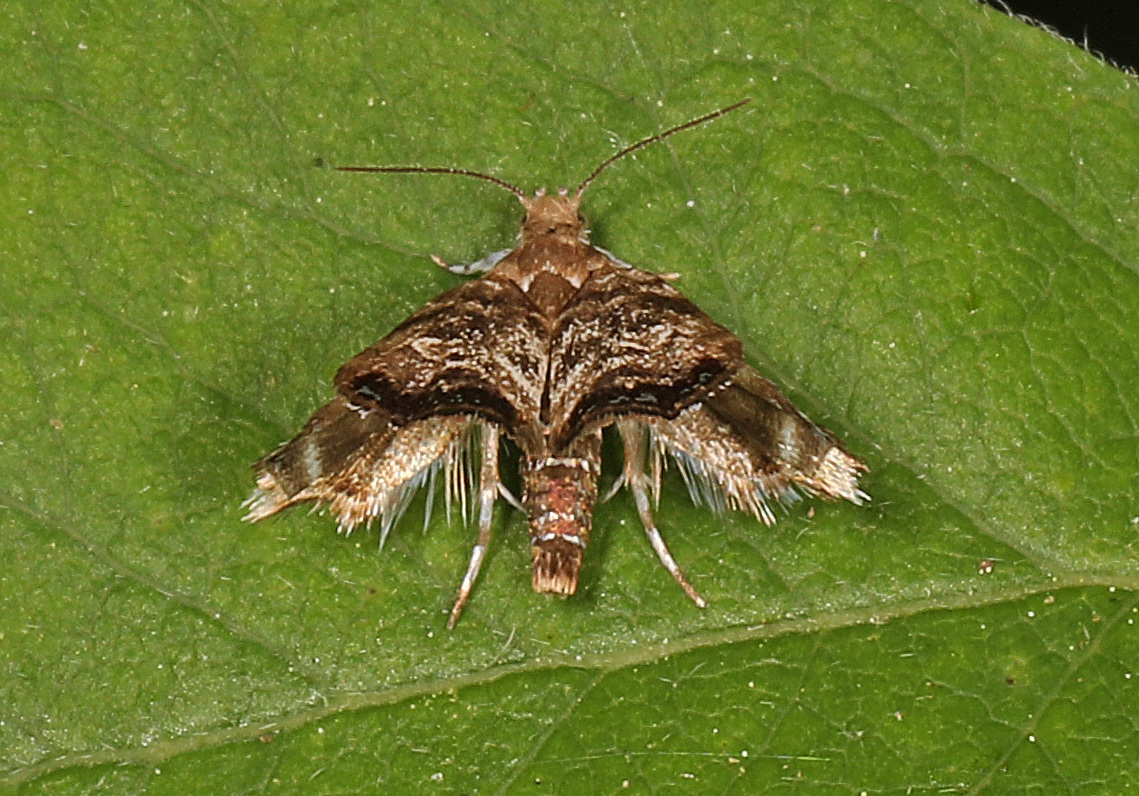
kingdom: Animalia
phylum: Arthropoda
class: Insecta
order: Lepidoptera
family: Choreutidae
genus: Brenthia
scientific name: Brenthia pavonacella
